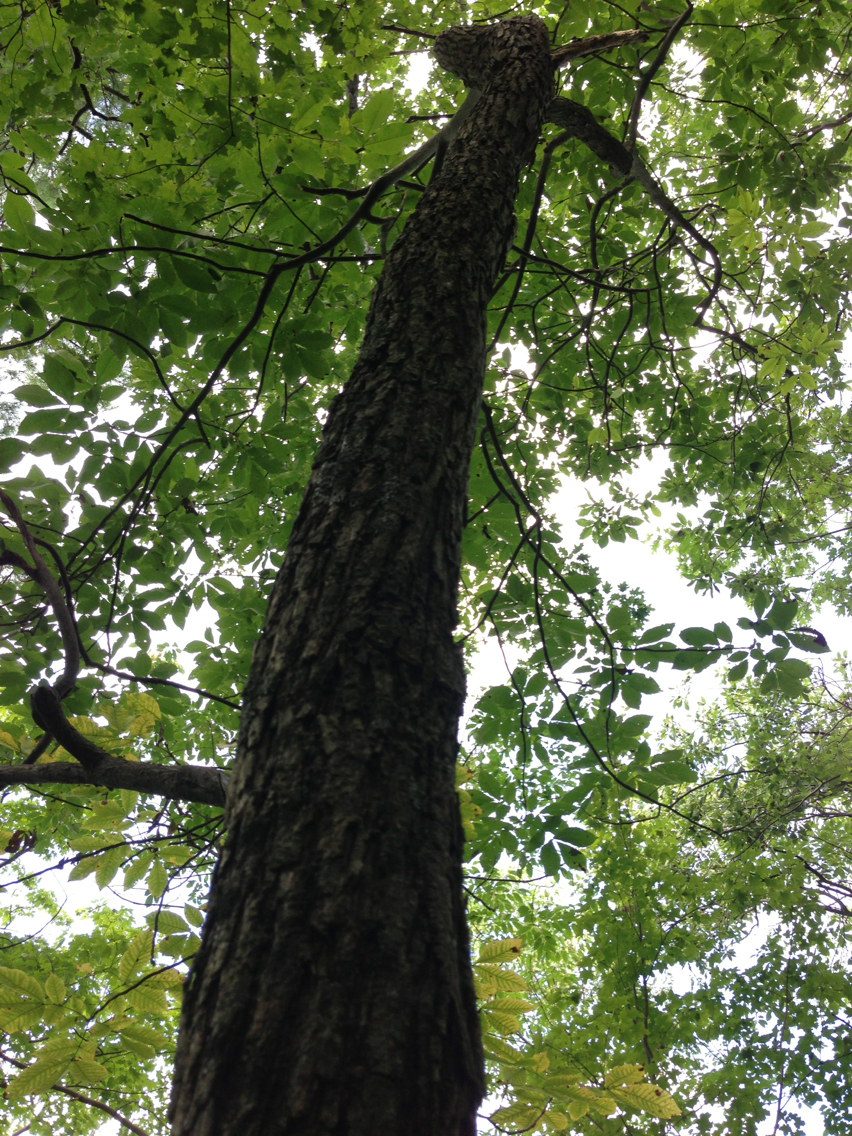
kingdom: Plantae
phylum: Tracheophyta
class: Magnoliopsida
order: Fagales
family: Juglandaceae
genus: Carya
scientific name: Carya glabra
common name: Pignut hickory
